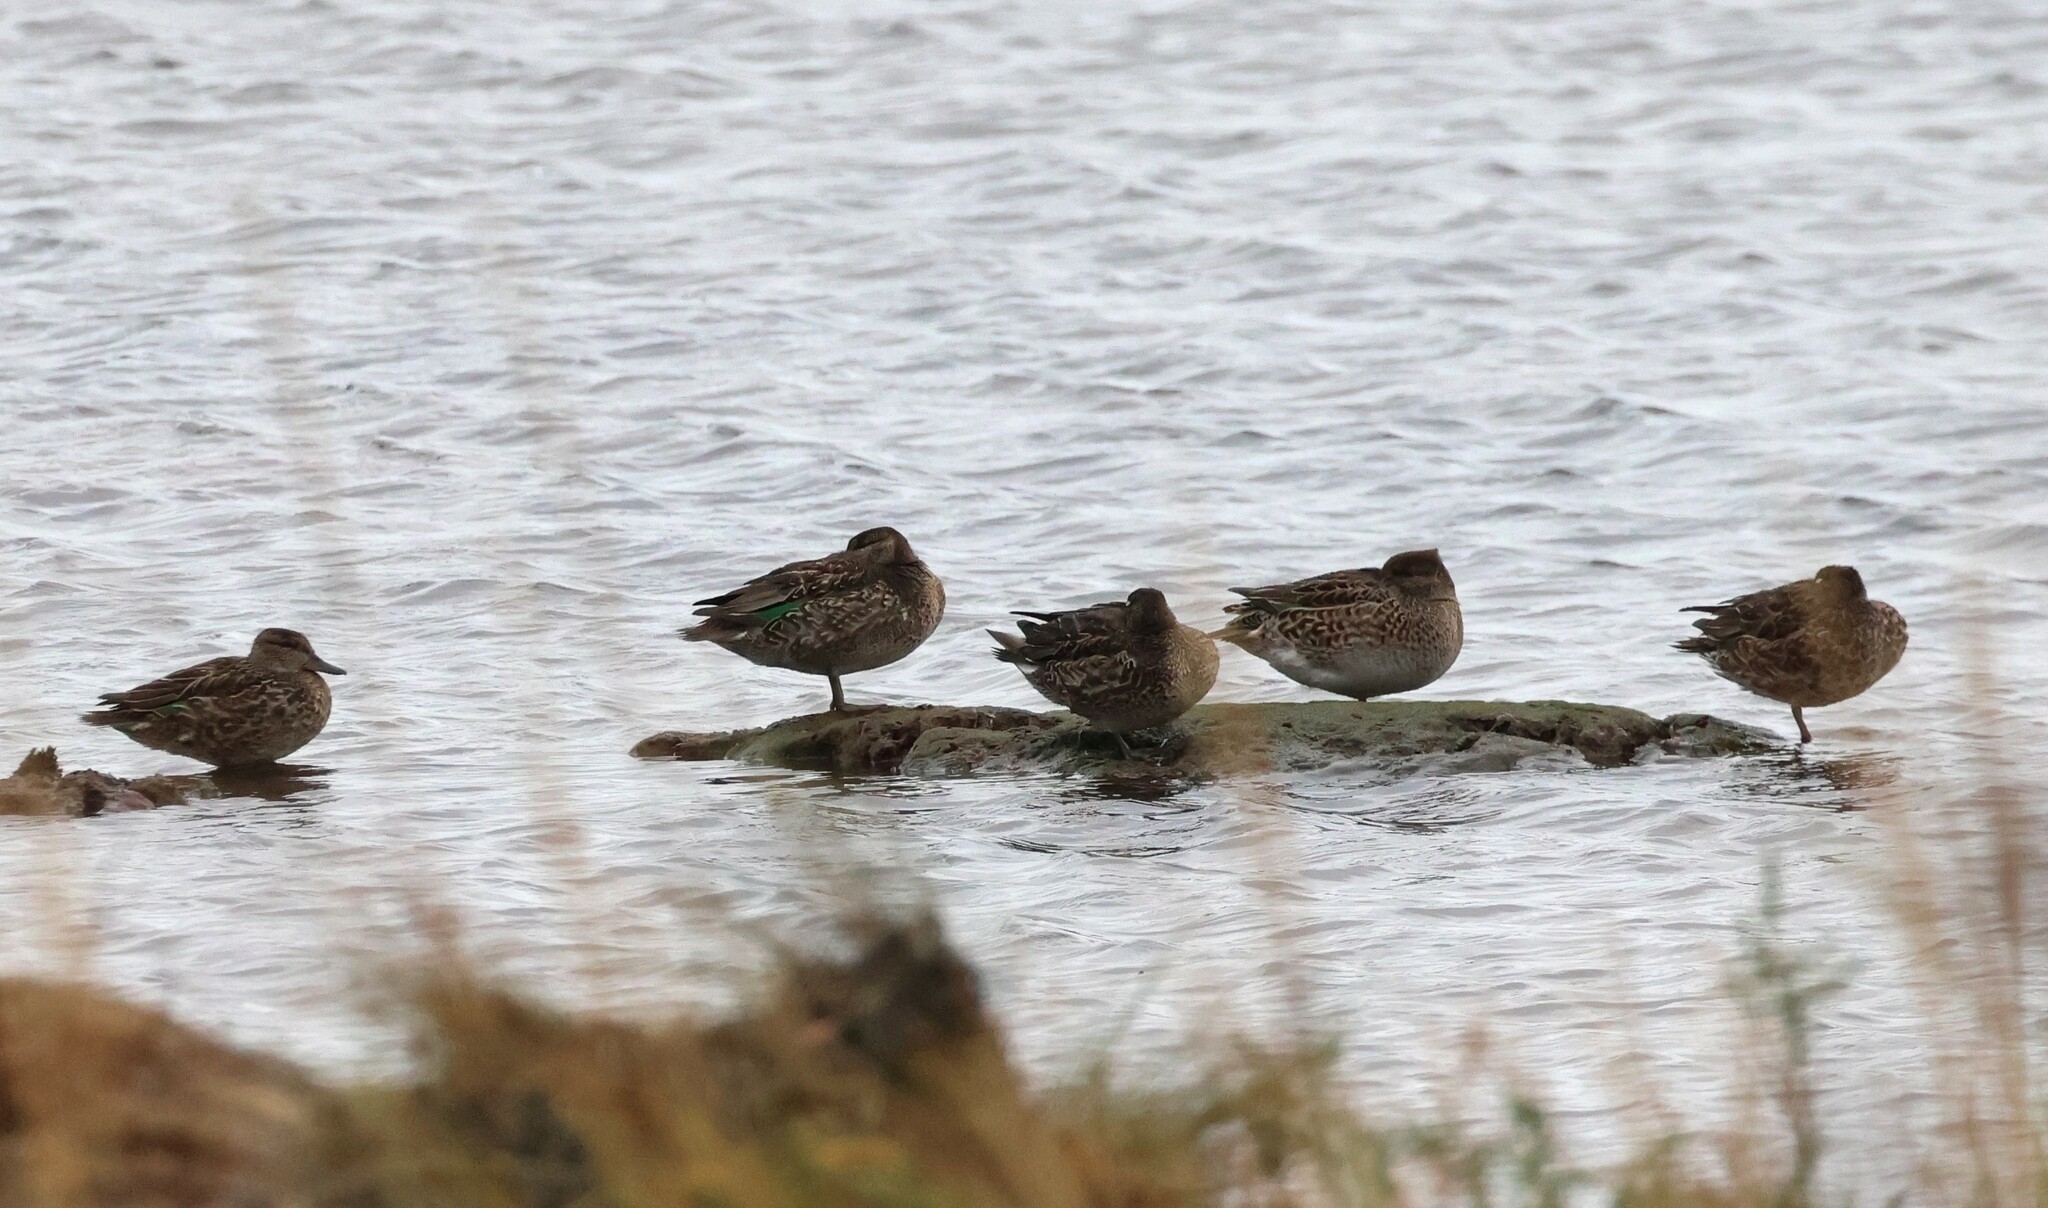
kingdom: Animalia
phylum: Chordata
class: Aves
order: Anseriformes
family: Anatidae
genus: Anas
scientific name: Anas crecca
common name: Eurasian teal
